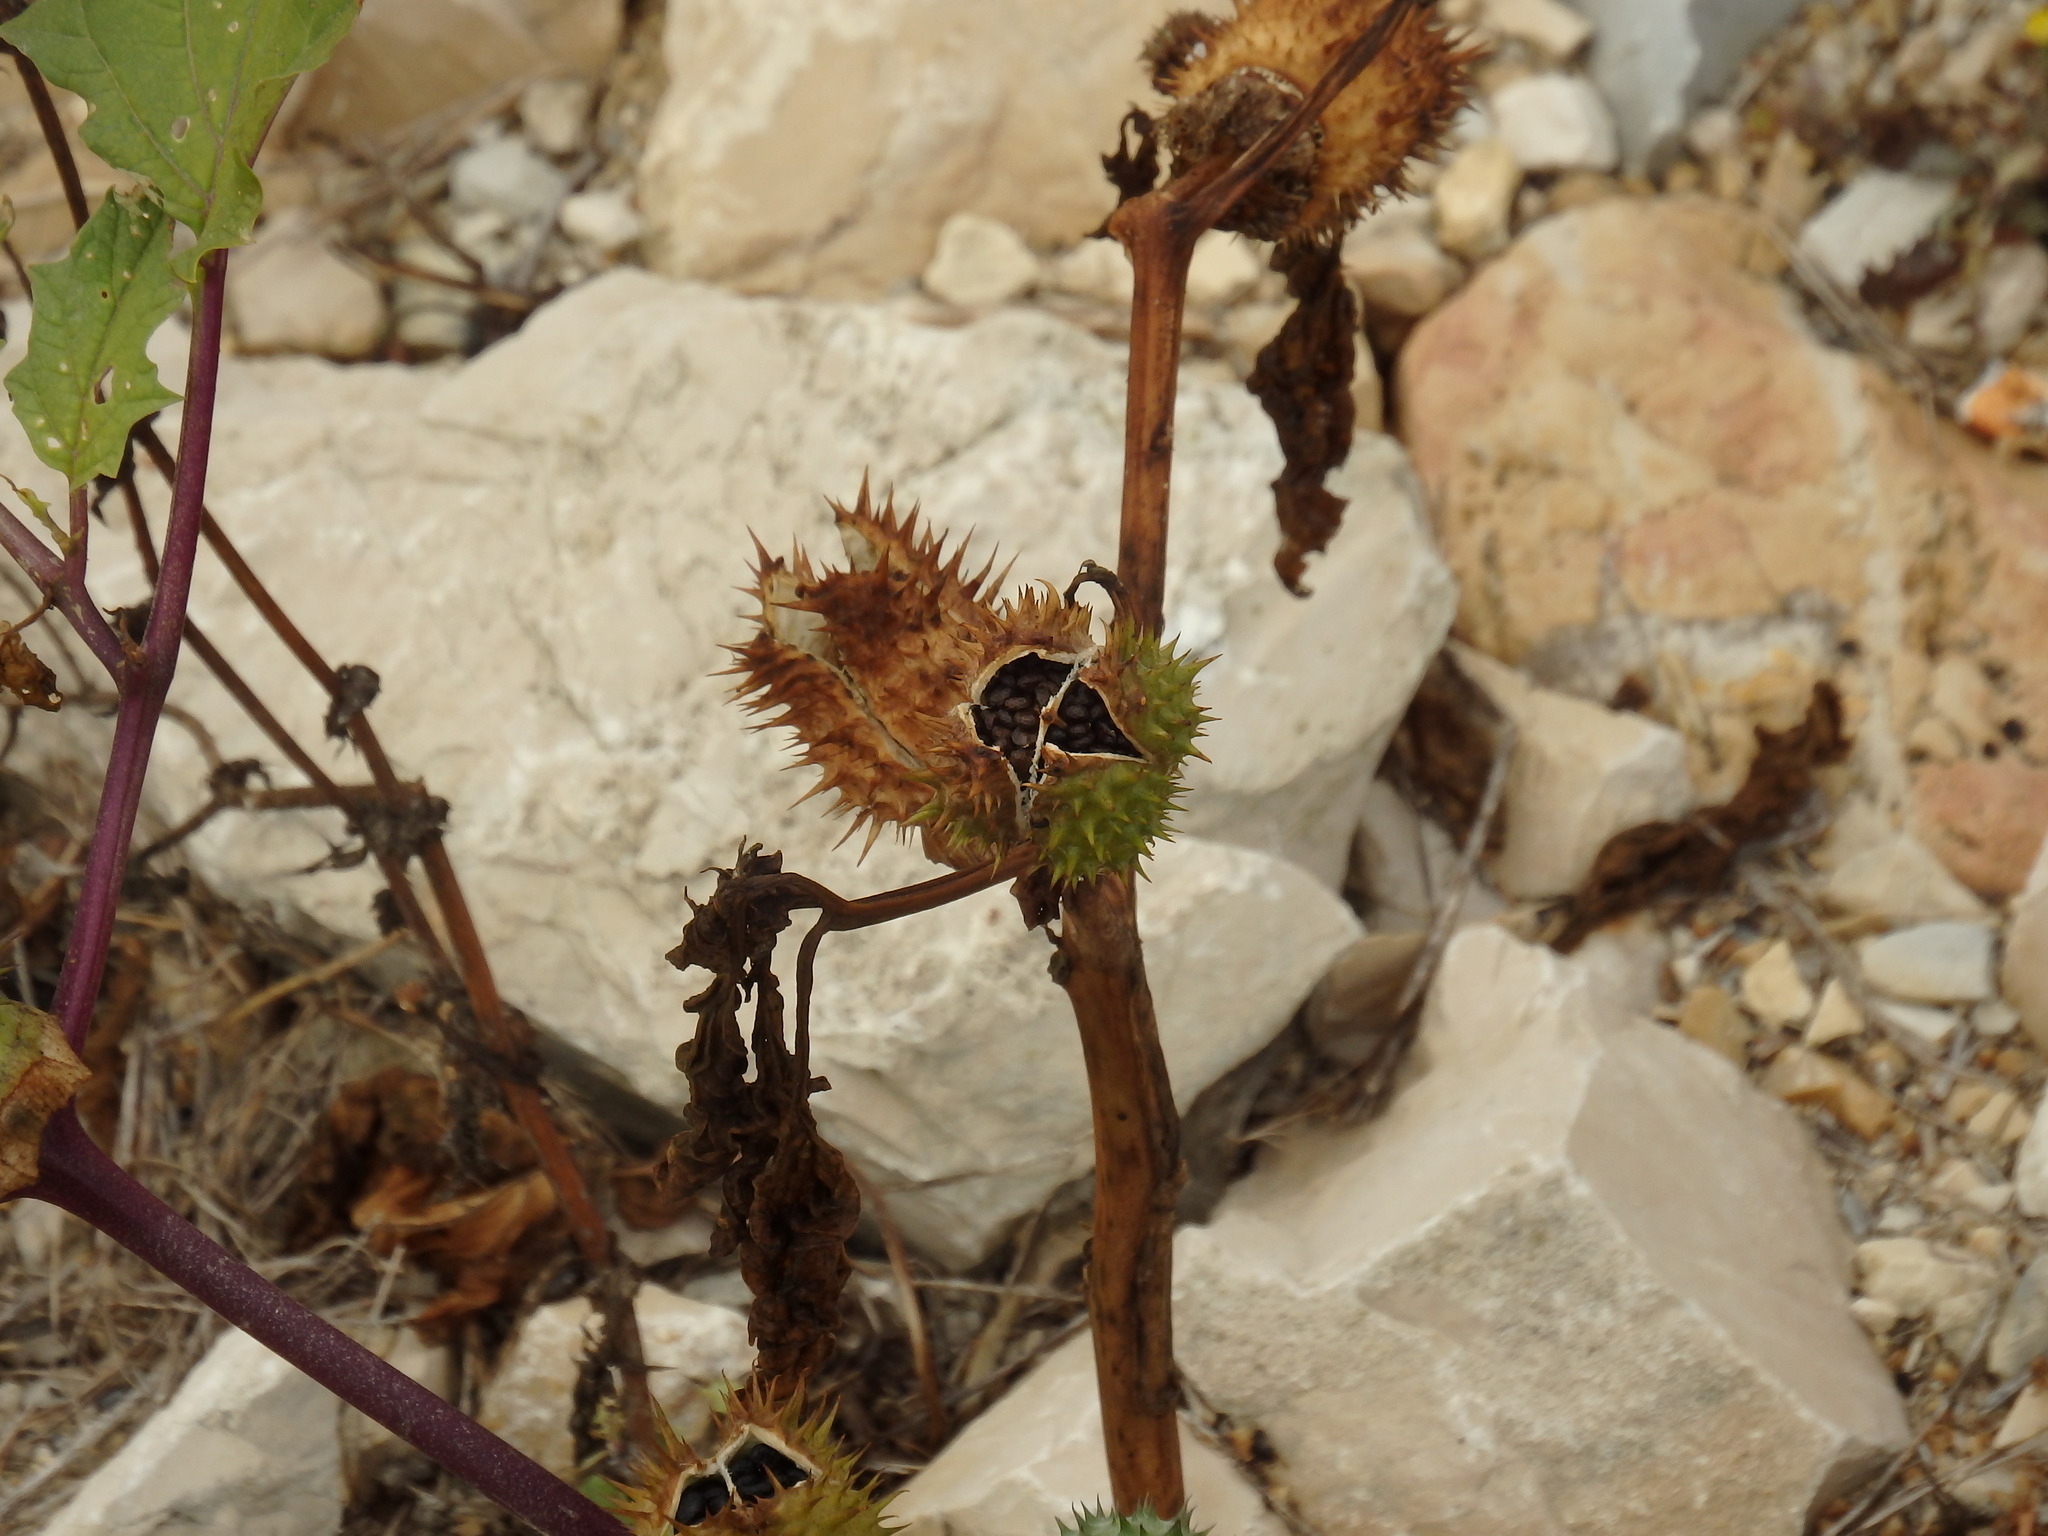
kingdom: Plantae
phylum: Tracheophyta
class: Magnoliopsida
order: Solanales
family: Solanaceae
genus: Datura
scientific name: Datura stramonium
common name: Thorn-apple
